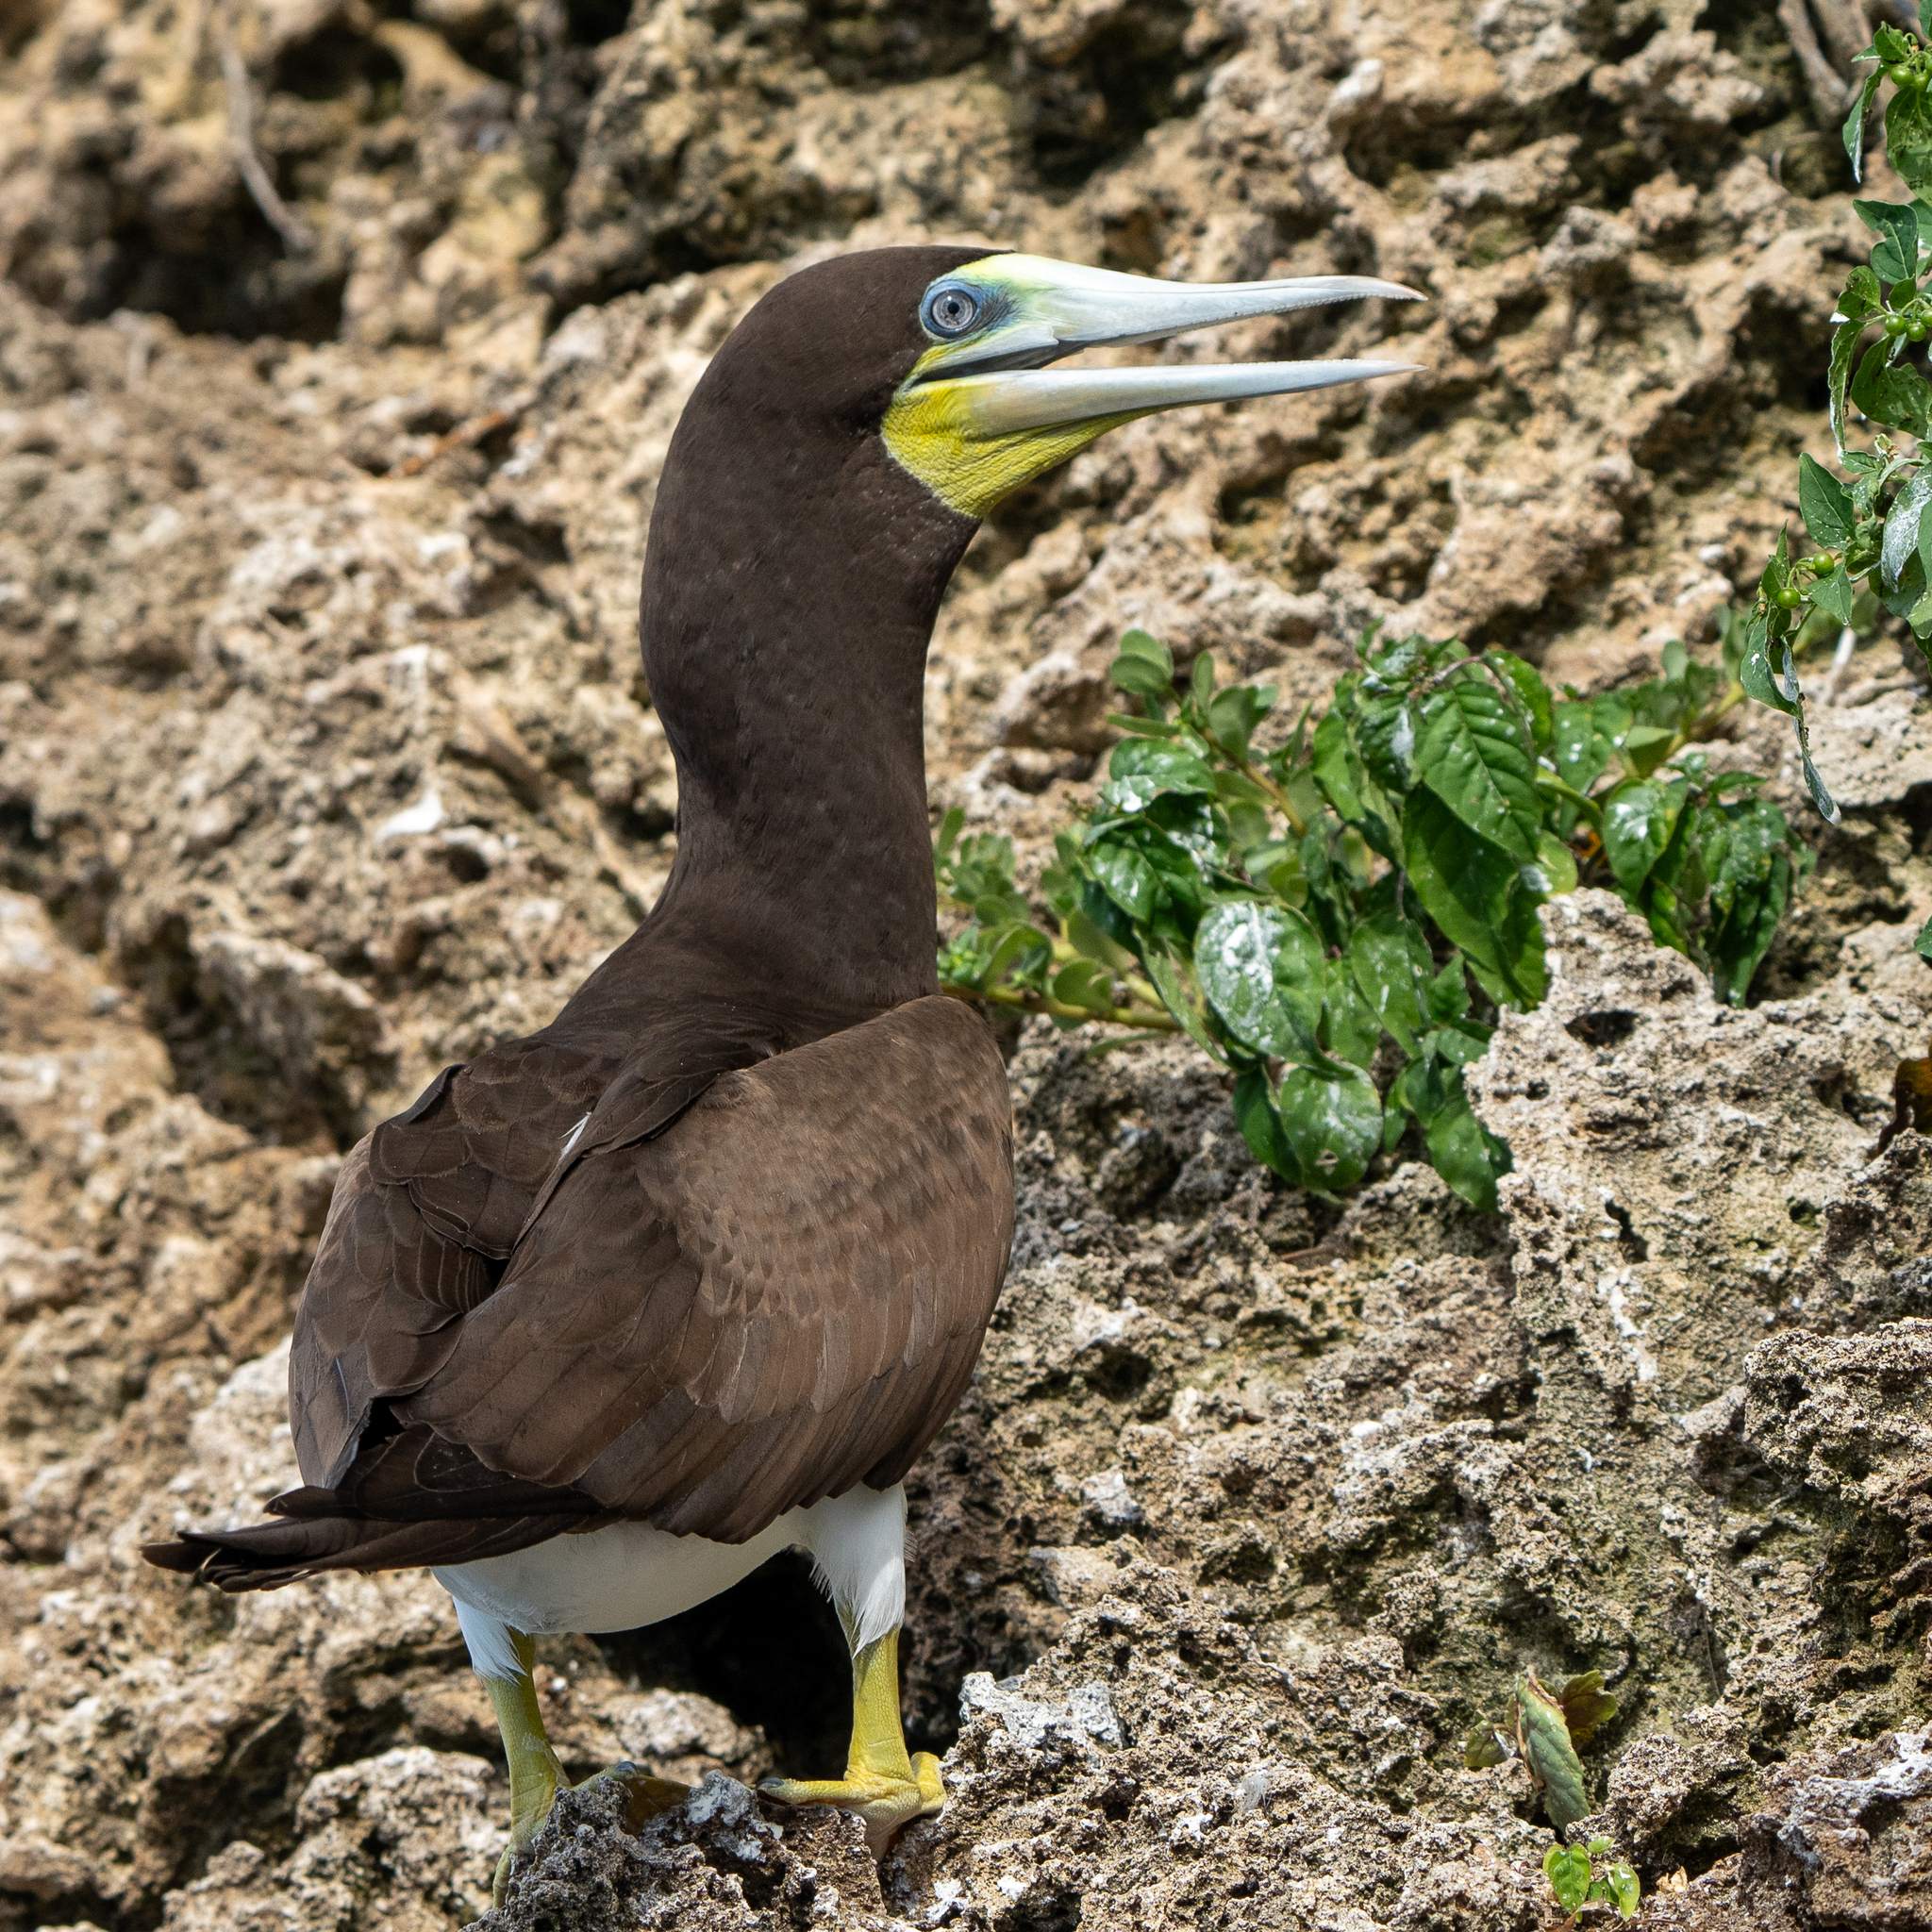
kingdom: Animalia
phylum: Chordata
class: Aves
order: Suliformes
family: Sulidae
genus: Sula
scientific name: Sula leucogaster
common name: Brown booby
